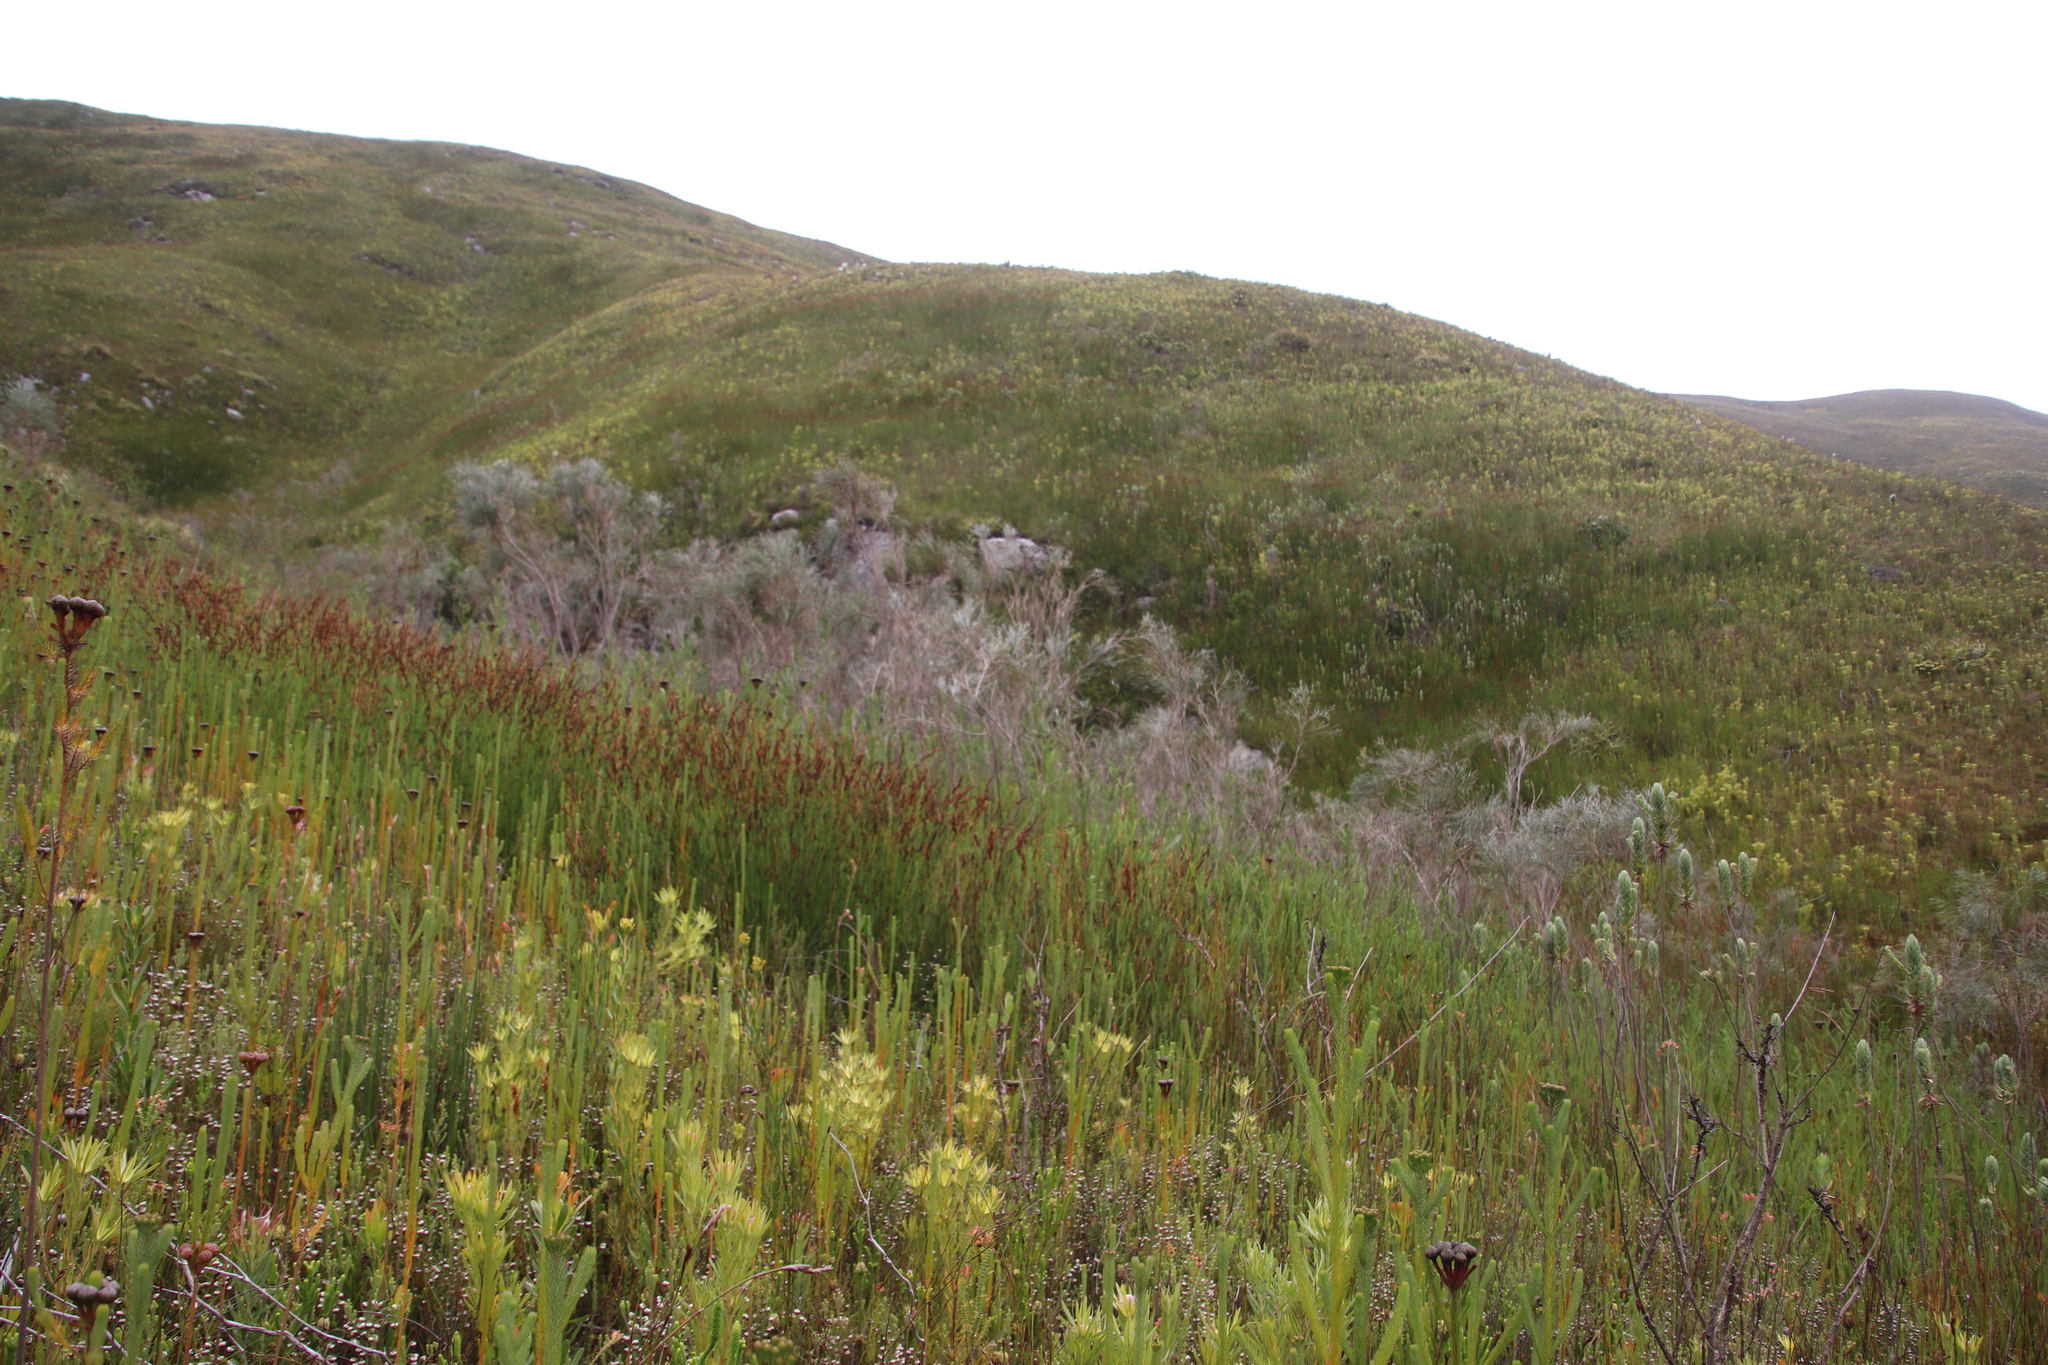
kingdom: Plantae
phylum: Tracheophyta
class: Magnoliopsida
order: Fabales
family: Fabaceae
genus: Psoralea
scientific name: Psoralea pullata
